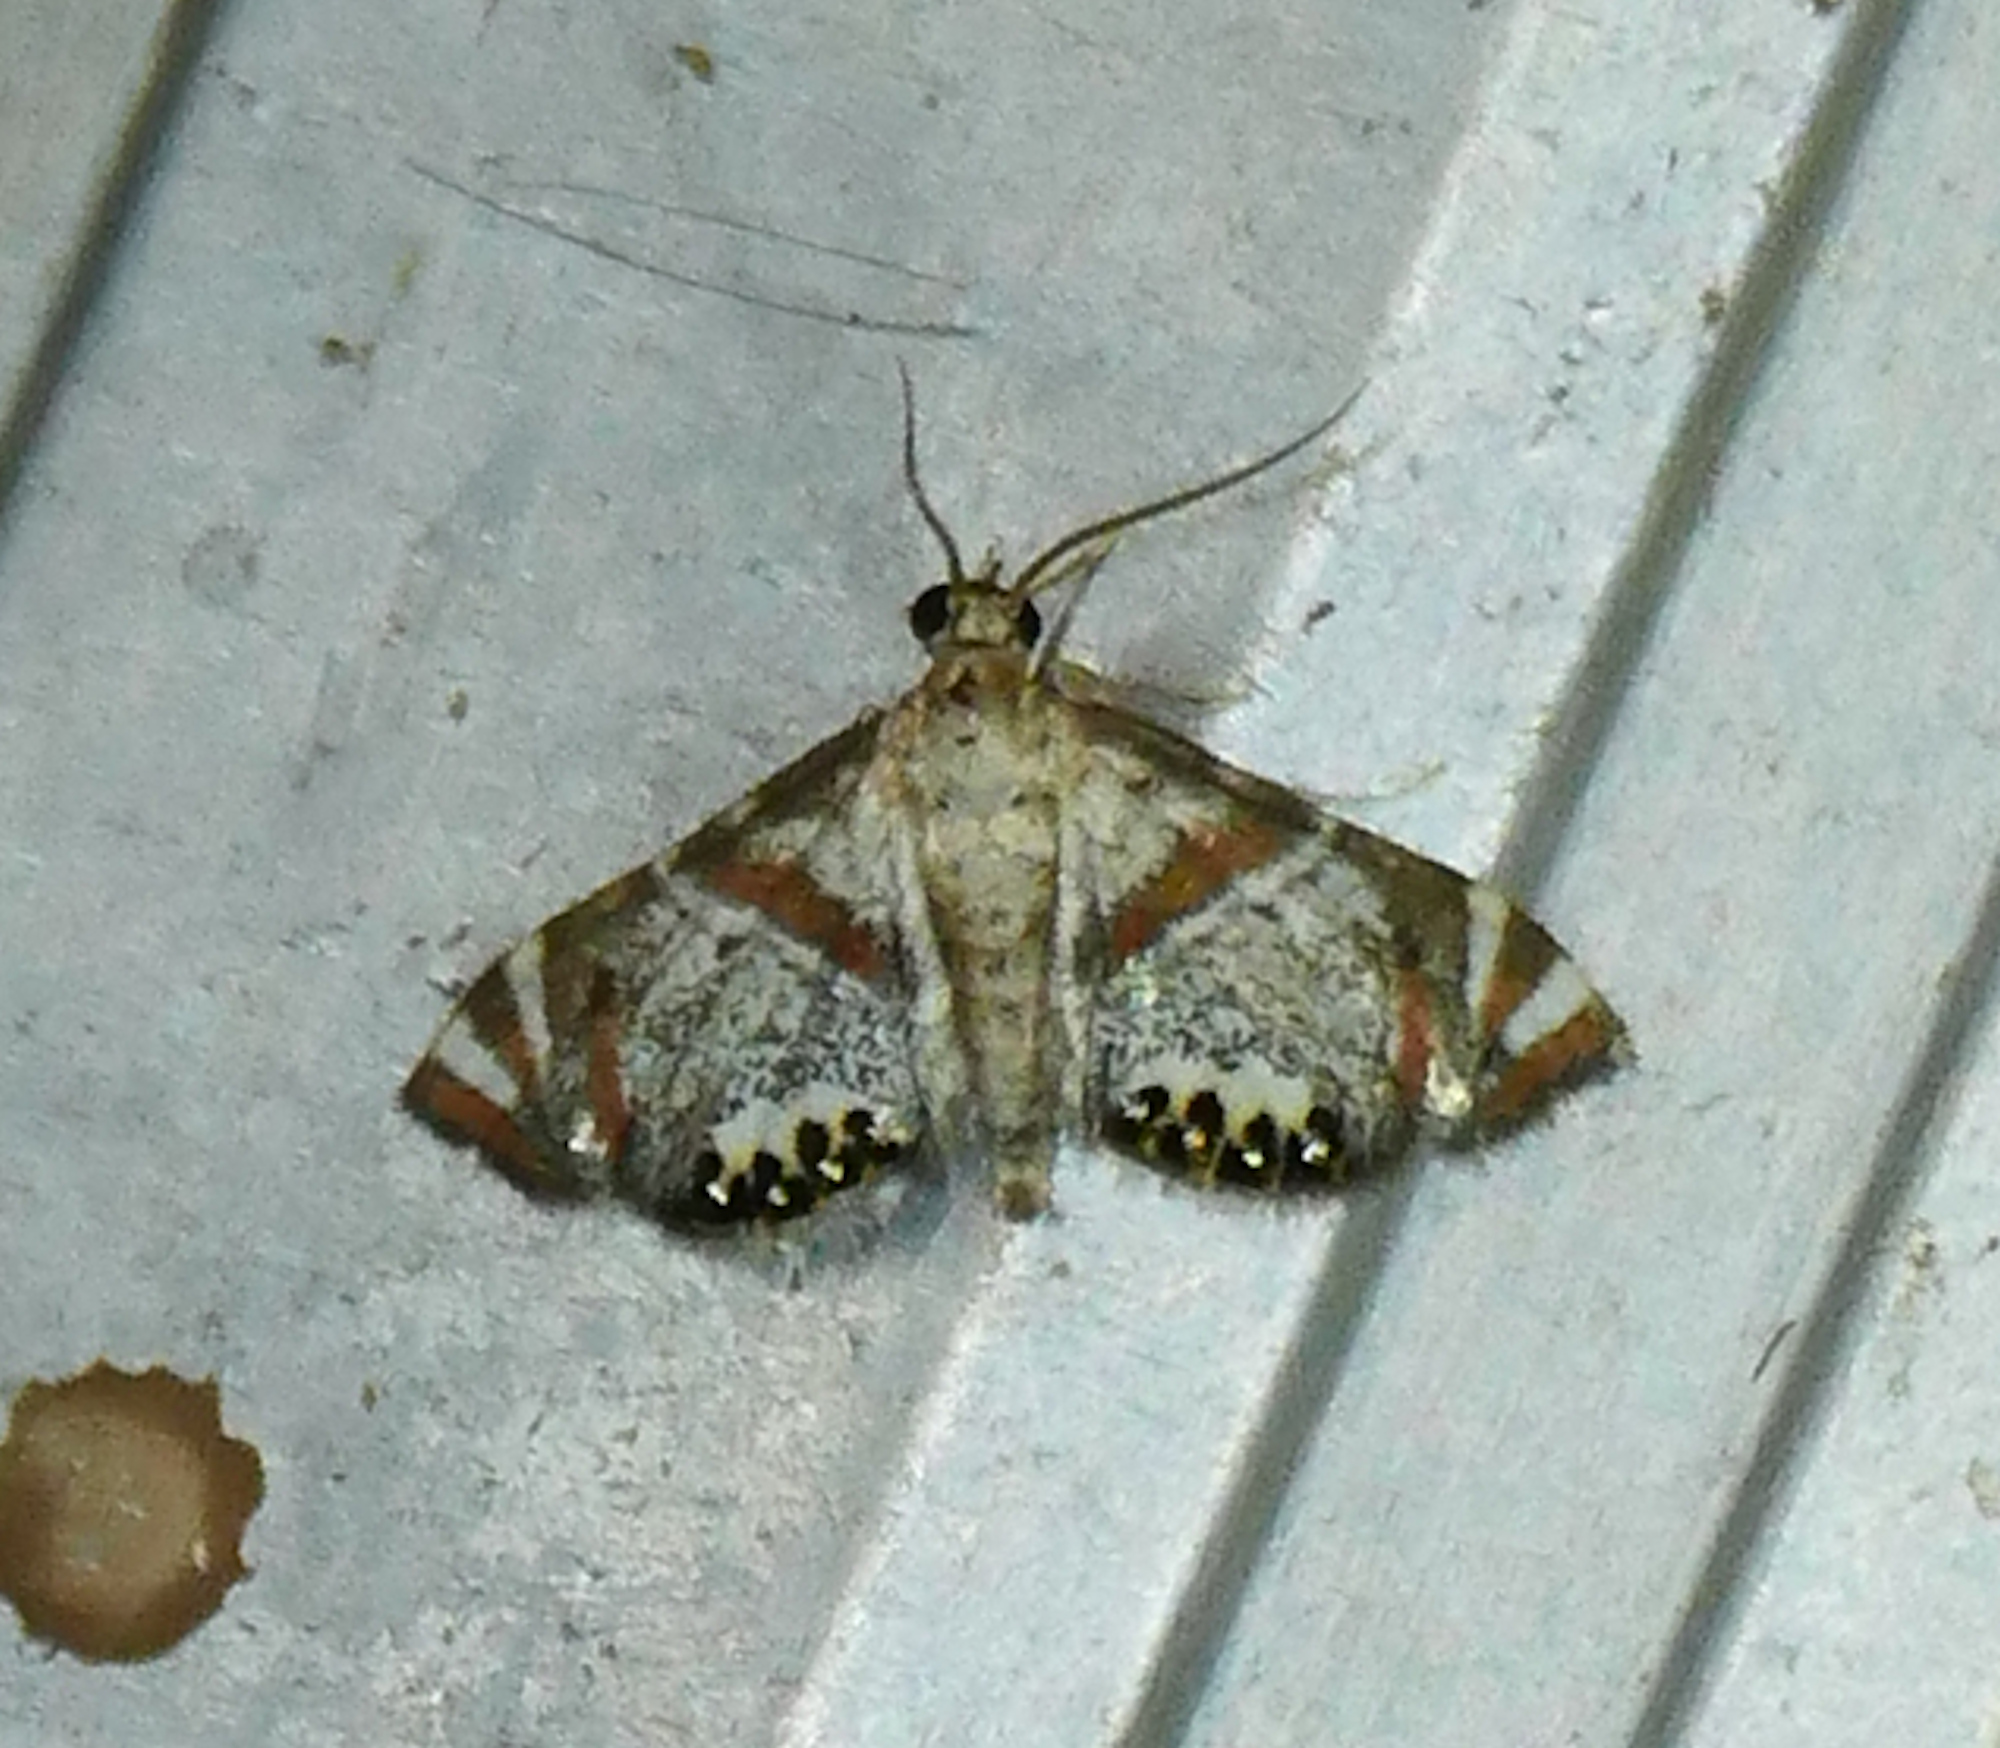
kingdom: Animalia
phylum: Arthropoda
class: Insecta
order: Lepidoptera
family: Crambidae
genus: Petrophila
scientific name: Petrophila jaliscalis
